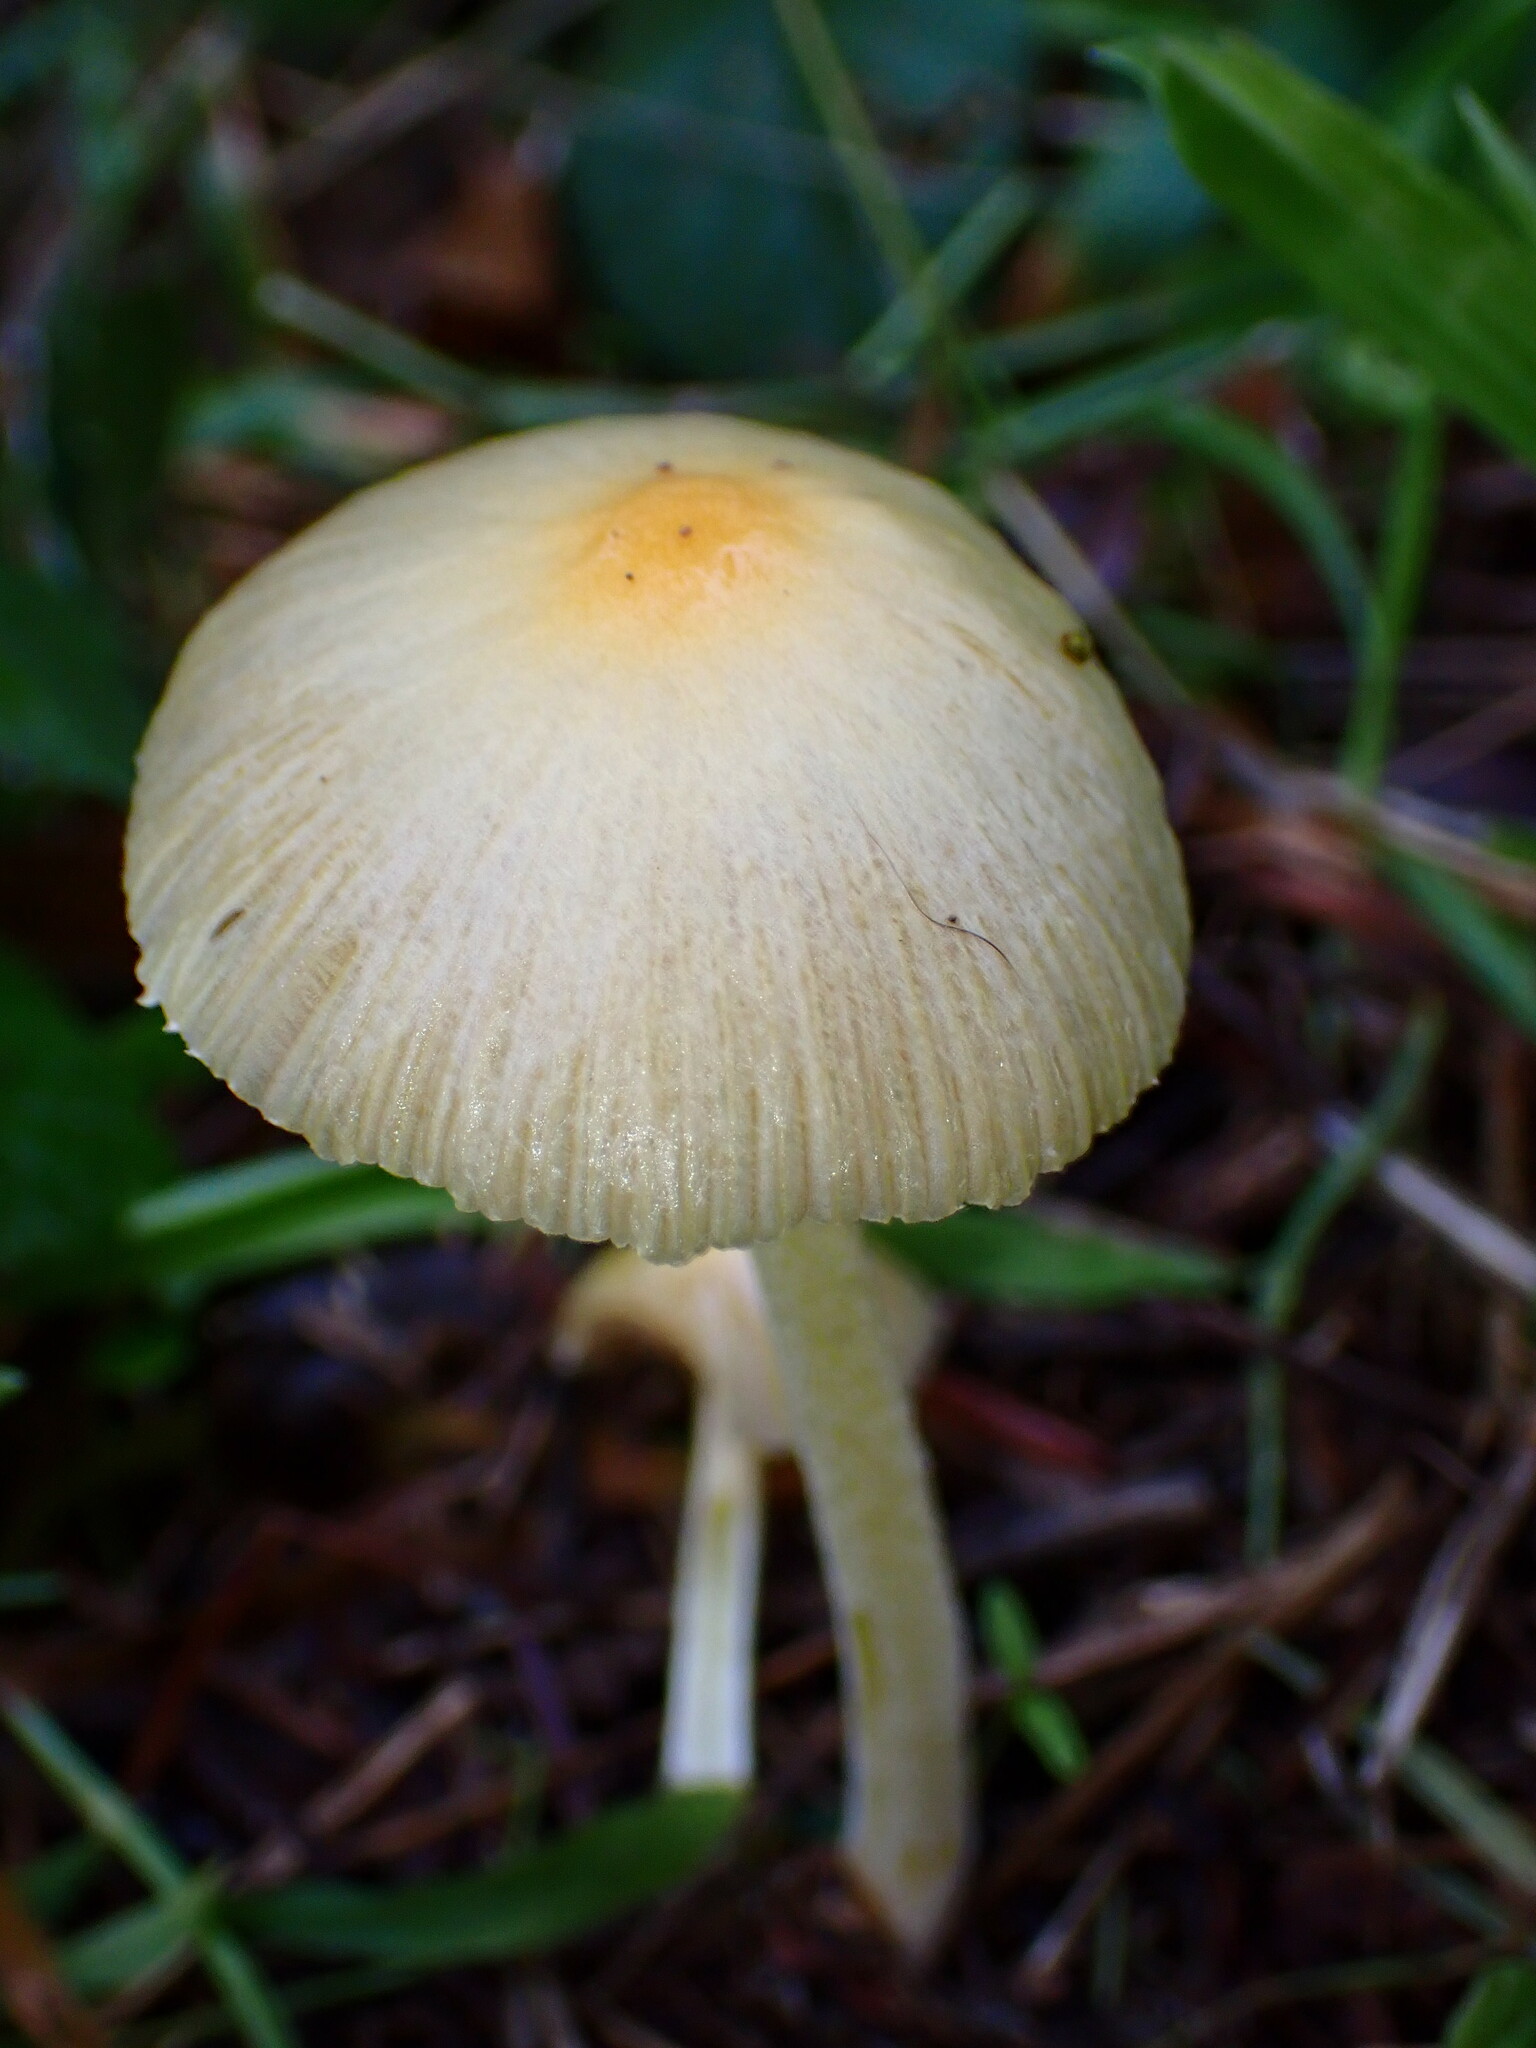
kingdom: Fungi
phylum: Basidiomycota
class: Agaricomycetes
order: Agaricales
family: Bolbitiaceae
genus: Bolbitius
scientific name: Bolbitius titubans
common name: Yellow fieldcap
